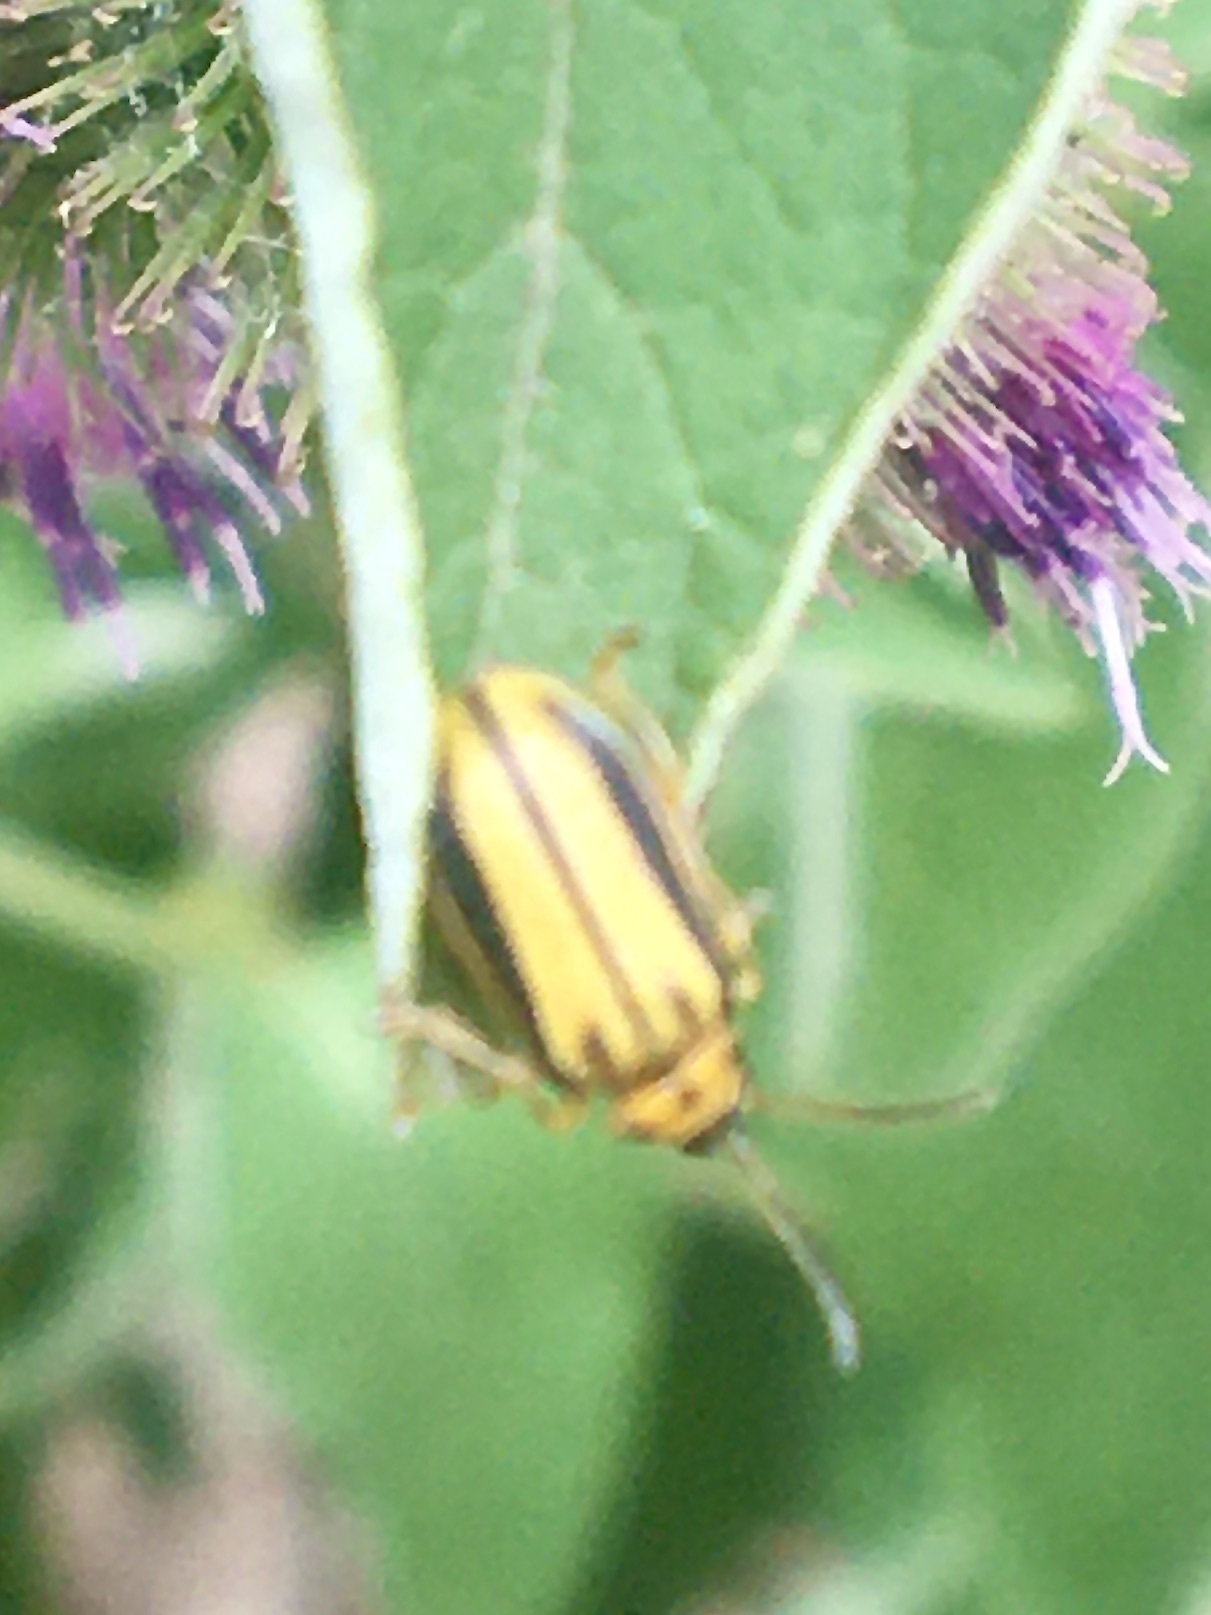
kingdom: Animalia
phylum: Arthropoda
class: Insecta
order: Coleoptera
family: Chrysomelidae
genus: Xanthogaleruca
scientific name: Xanthogaleruca luteola
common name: Elm leaf beetle
